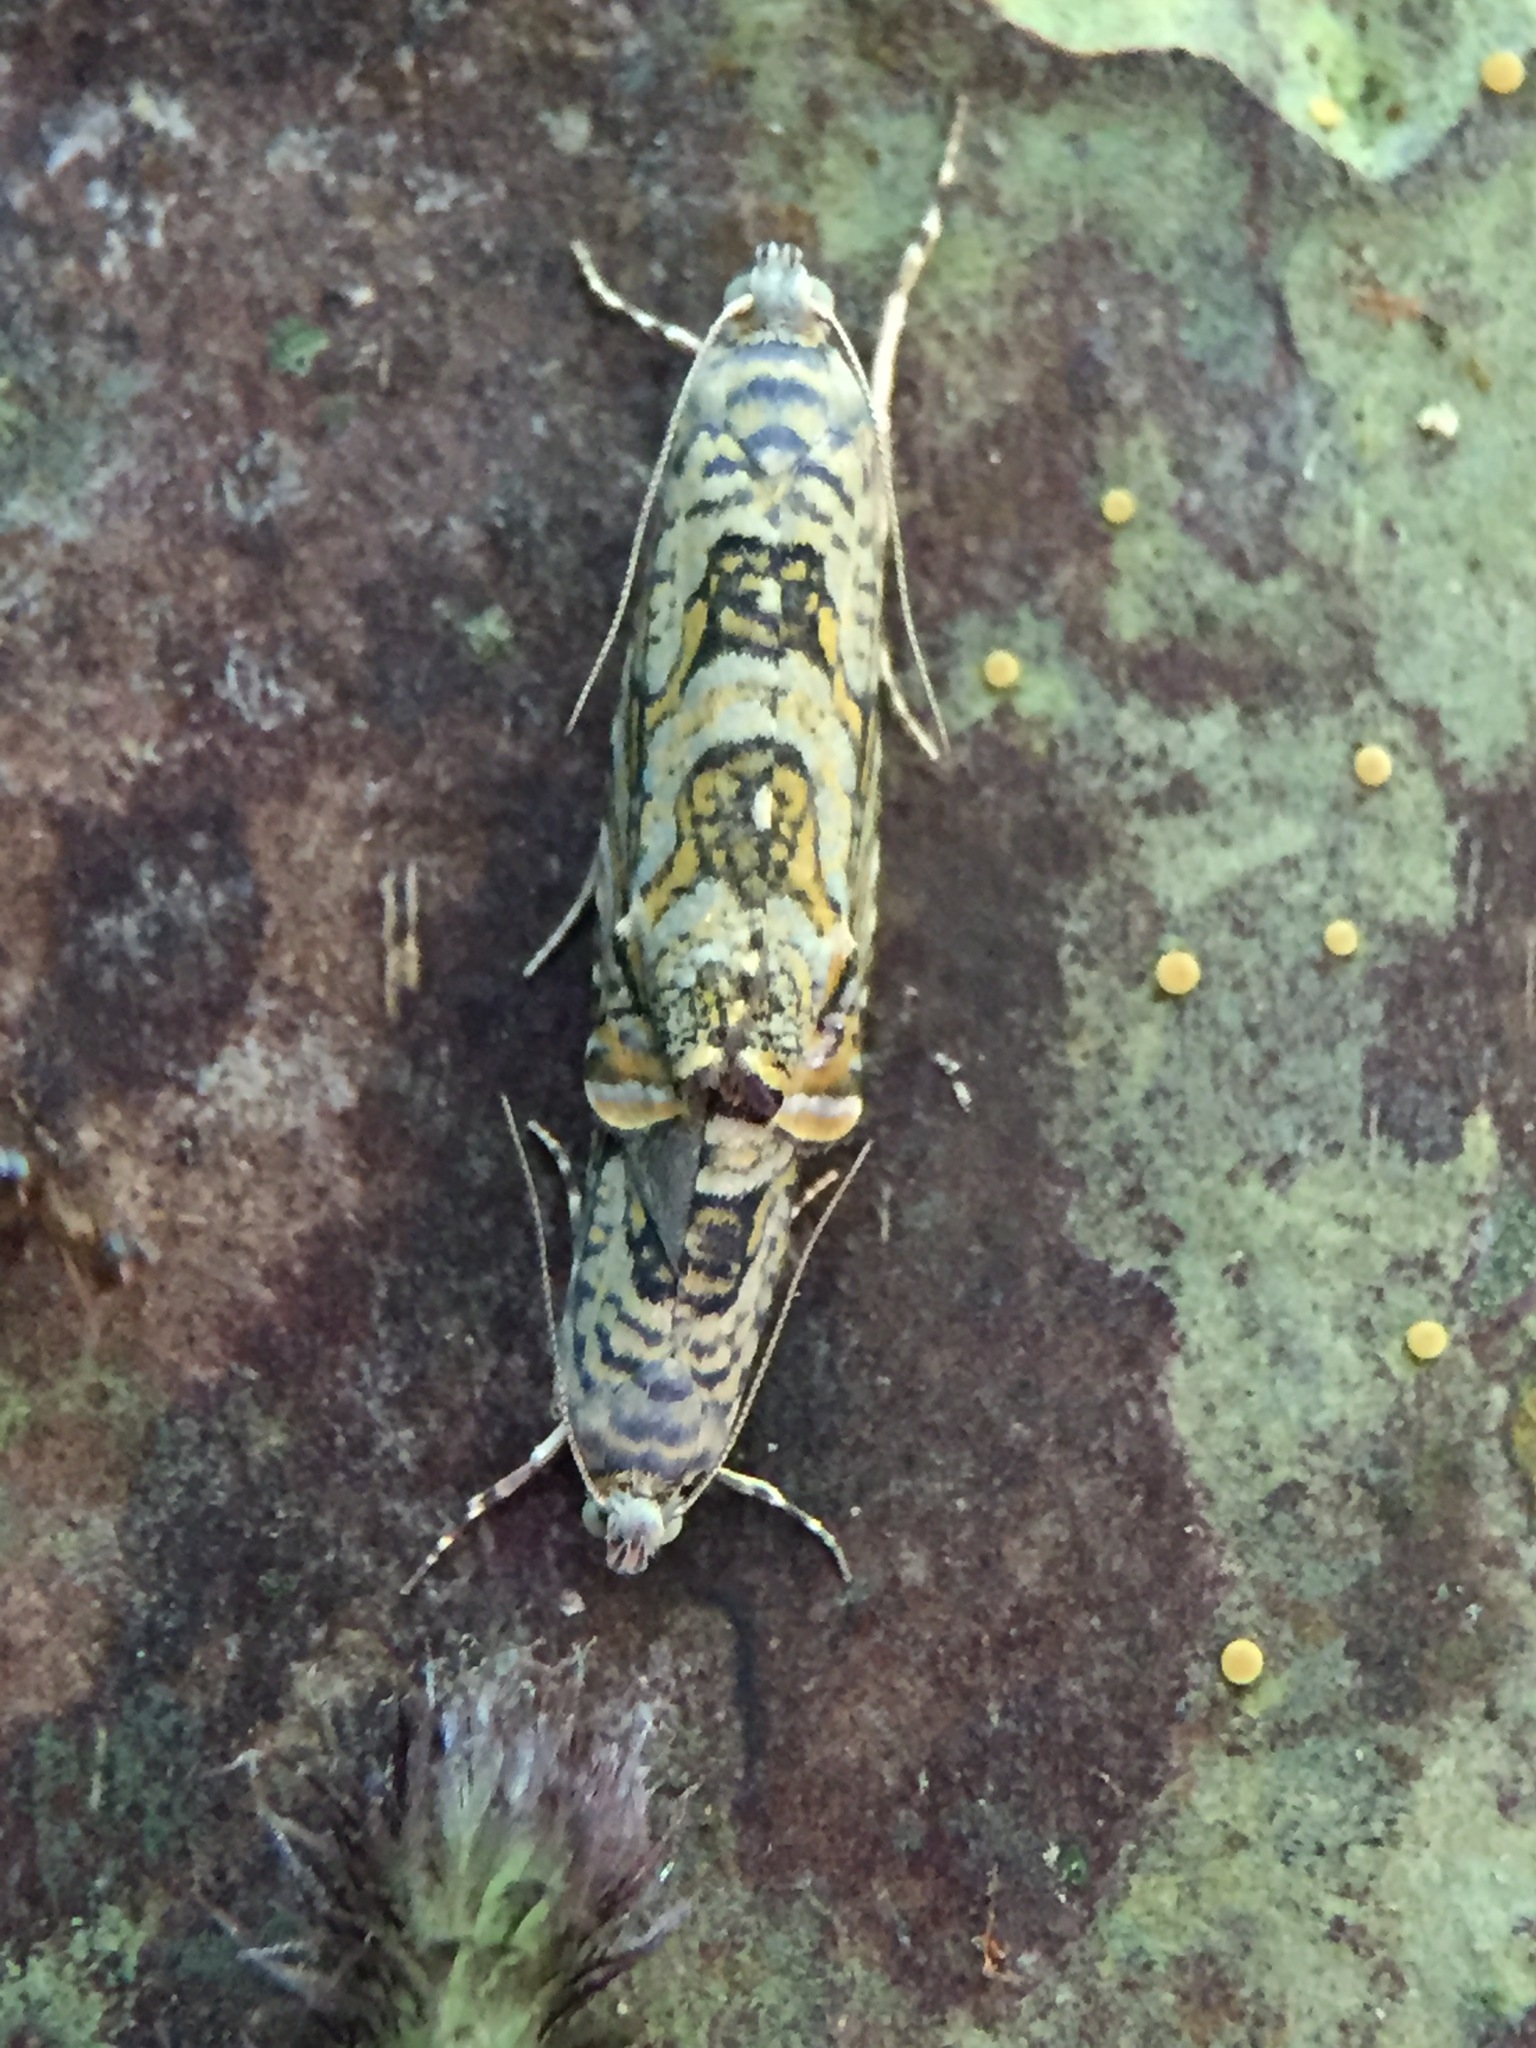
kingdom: Animalia
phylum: Arthropoda
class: Insecta
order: Lepidoptera
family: Plutellidae
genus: Doxophyrtis
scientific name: Doxophyrtis hydrocosma
